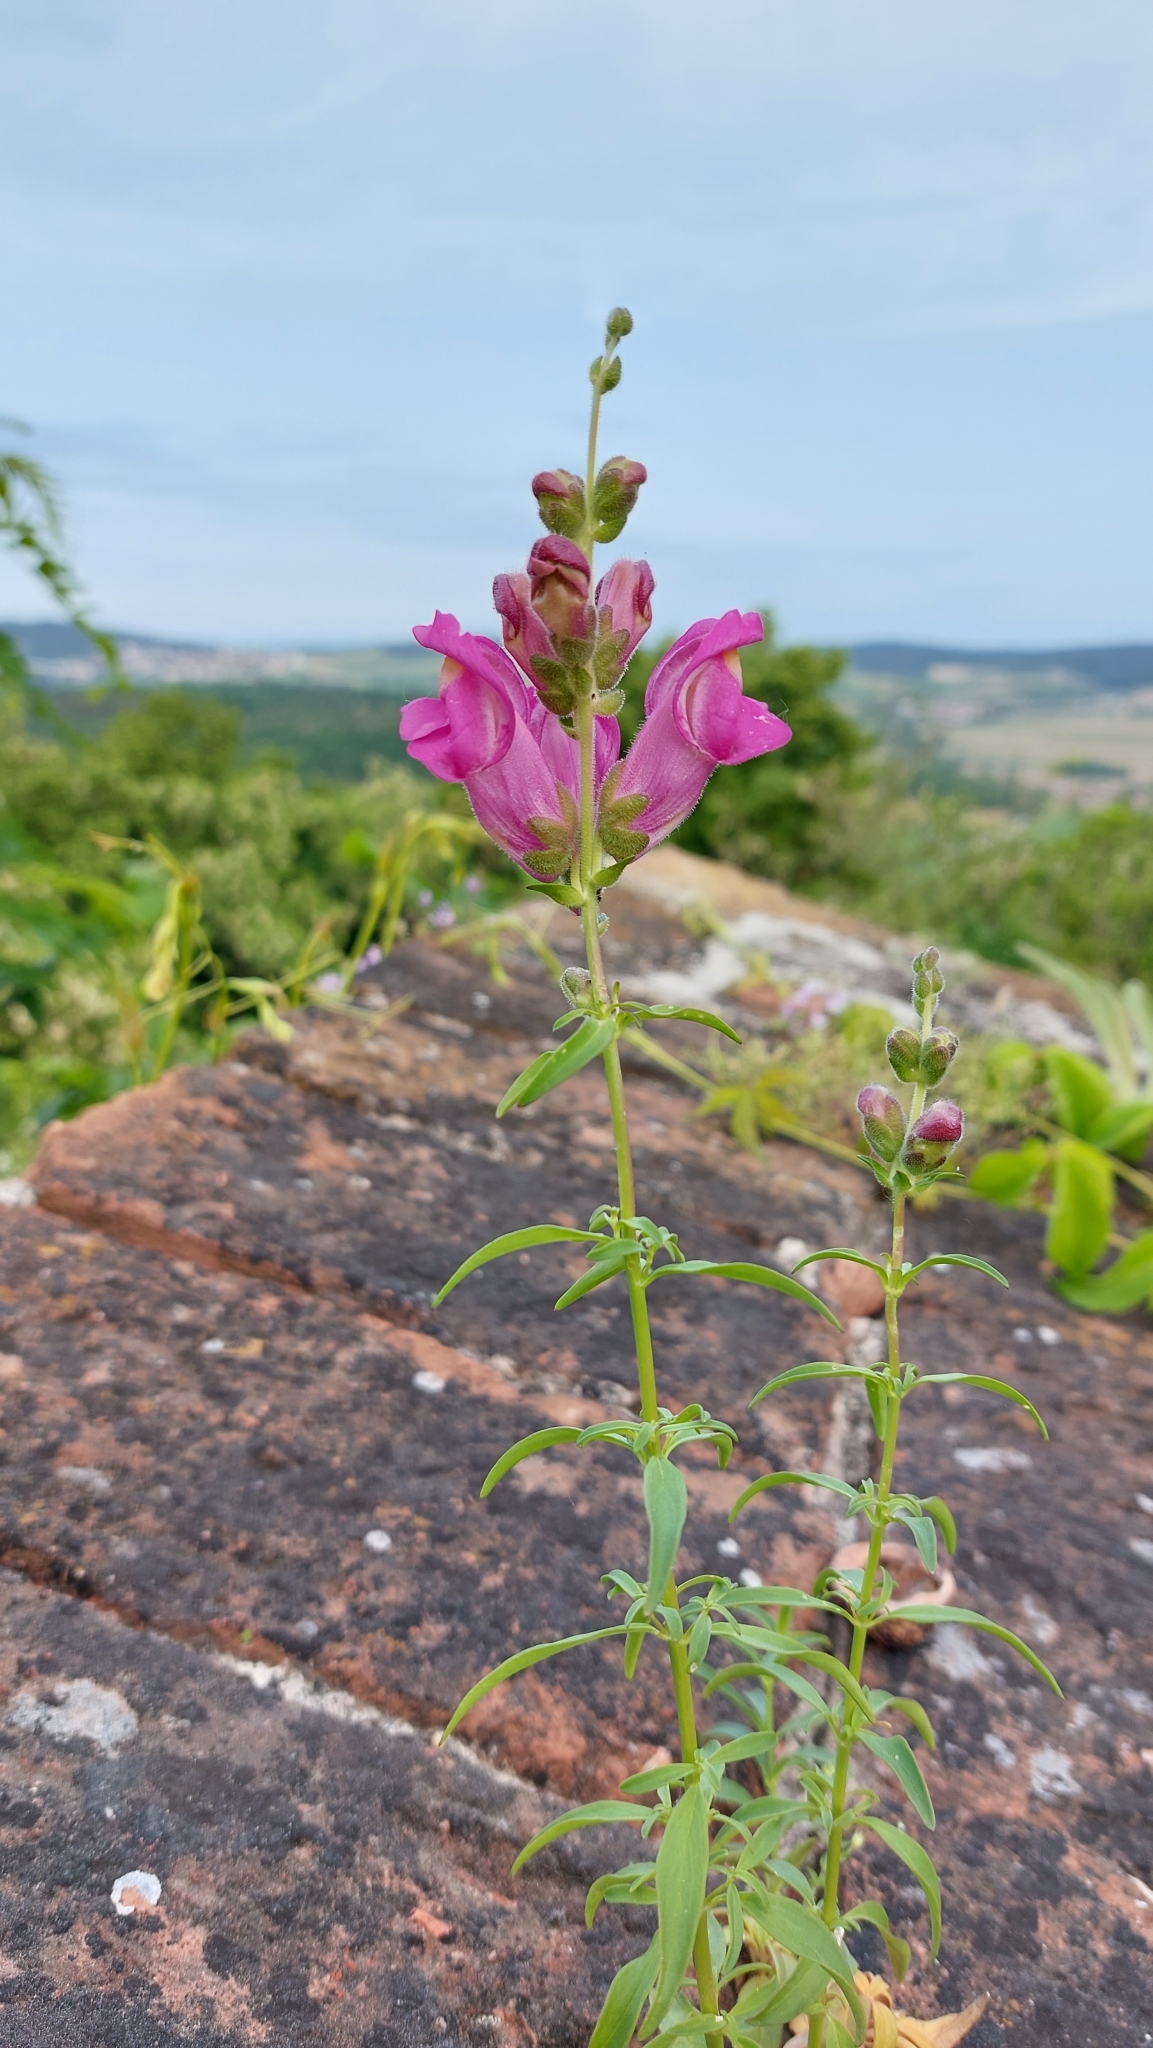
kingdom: Plantae
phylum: Tracheophyta
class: Magnoliopsida
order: Lamiales
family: Plantaginaceae
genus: Antirrhinum
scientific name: Antirrhinum majus
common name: Snapdragon
